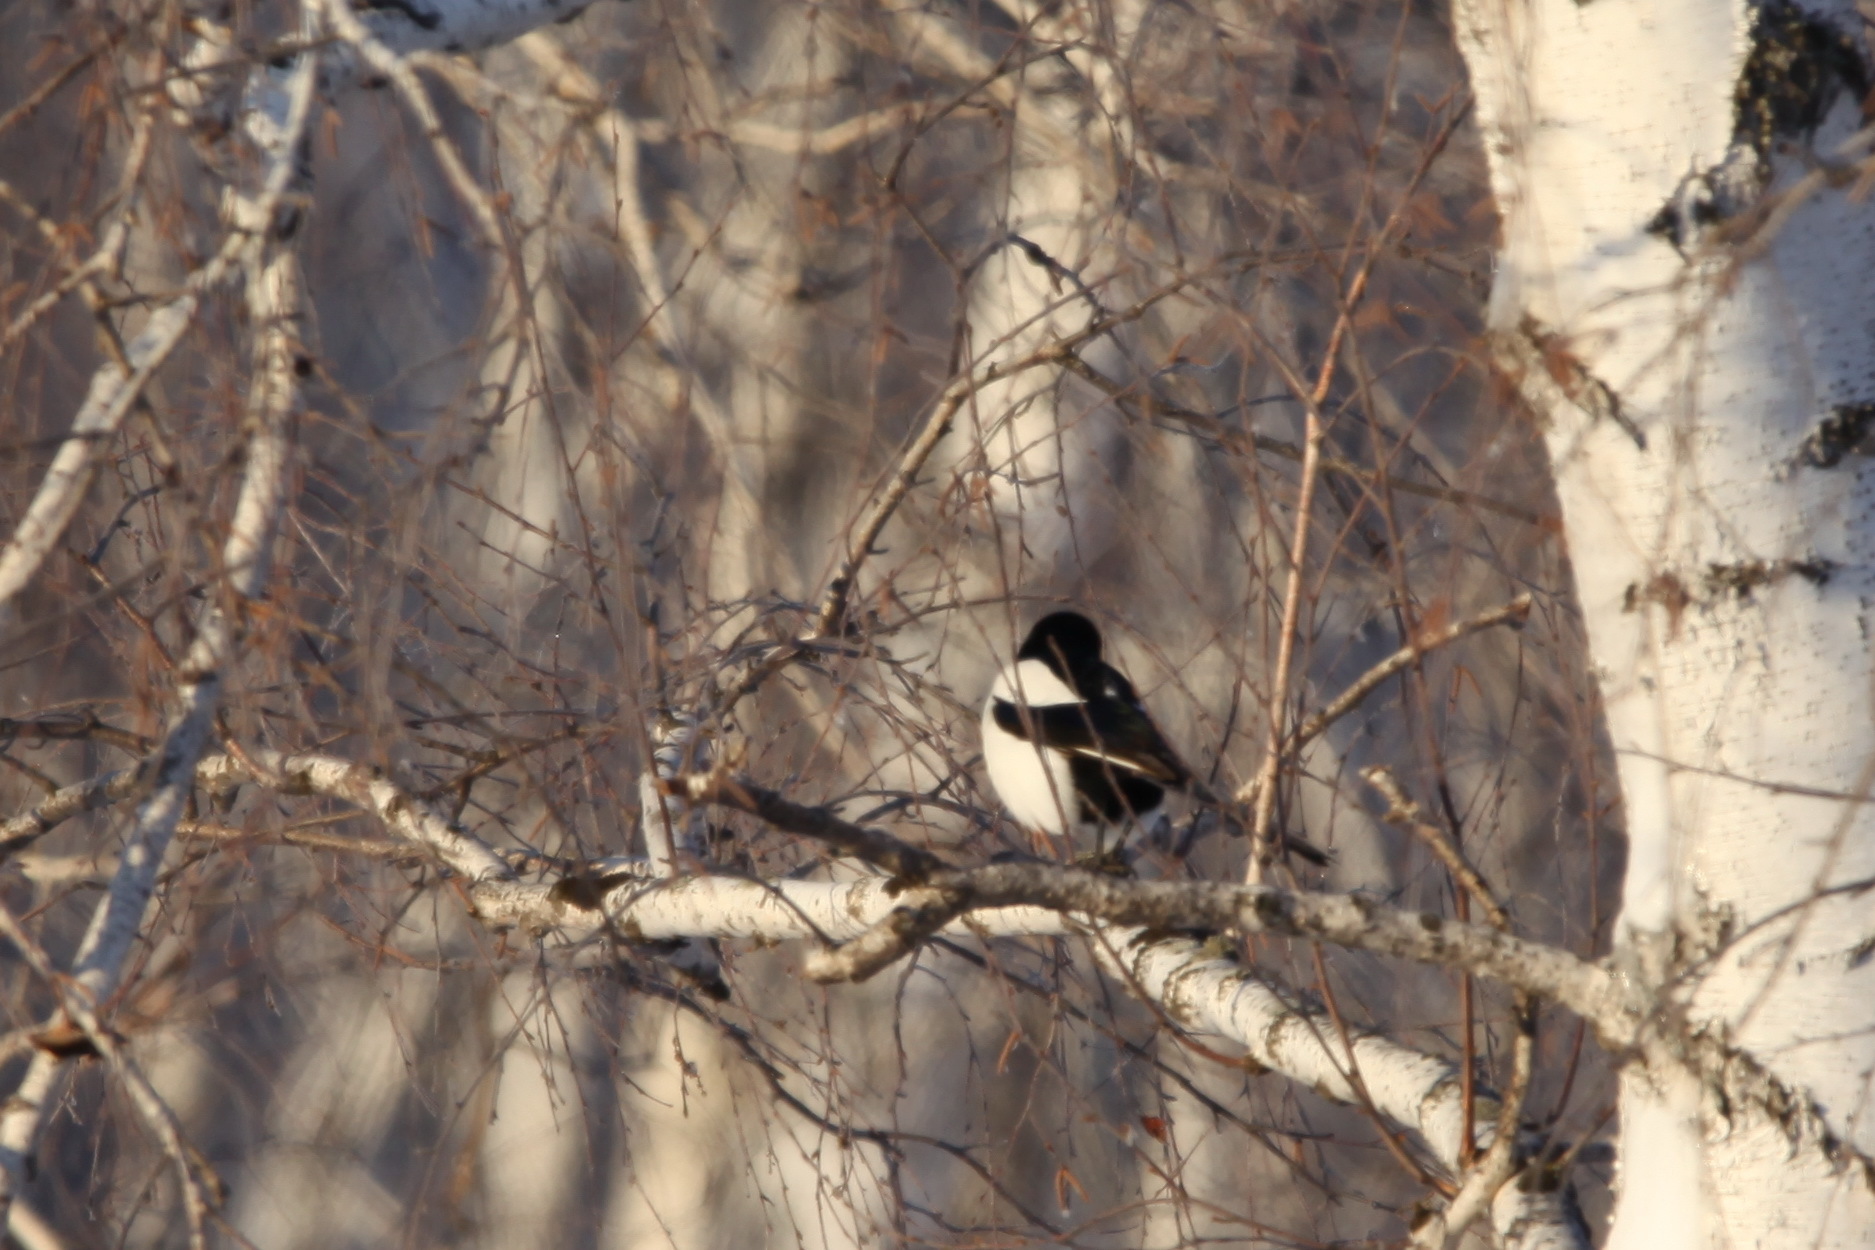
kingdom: Animalia
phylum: Chordata
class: Aves
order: Passeriformes
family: Corvidae
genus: Pica
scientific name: Pica pica
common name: Eurasian magpie
